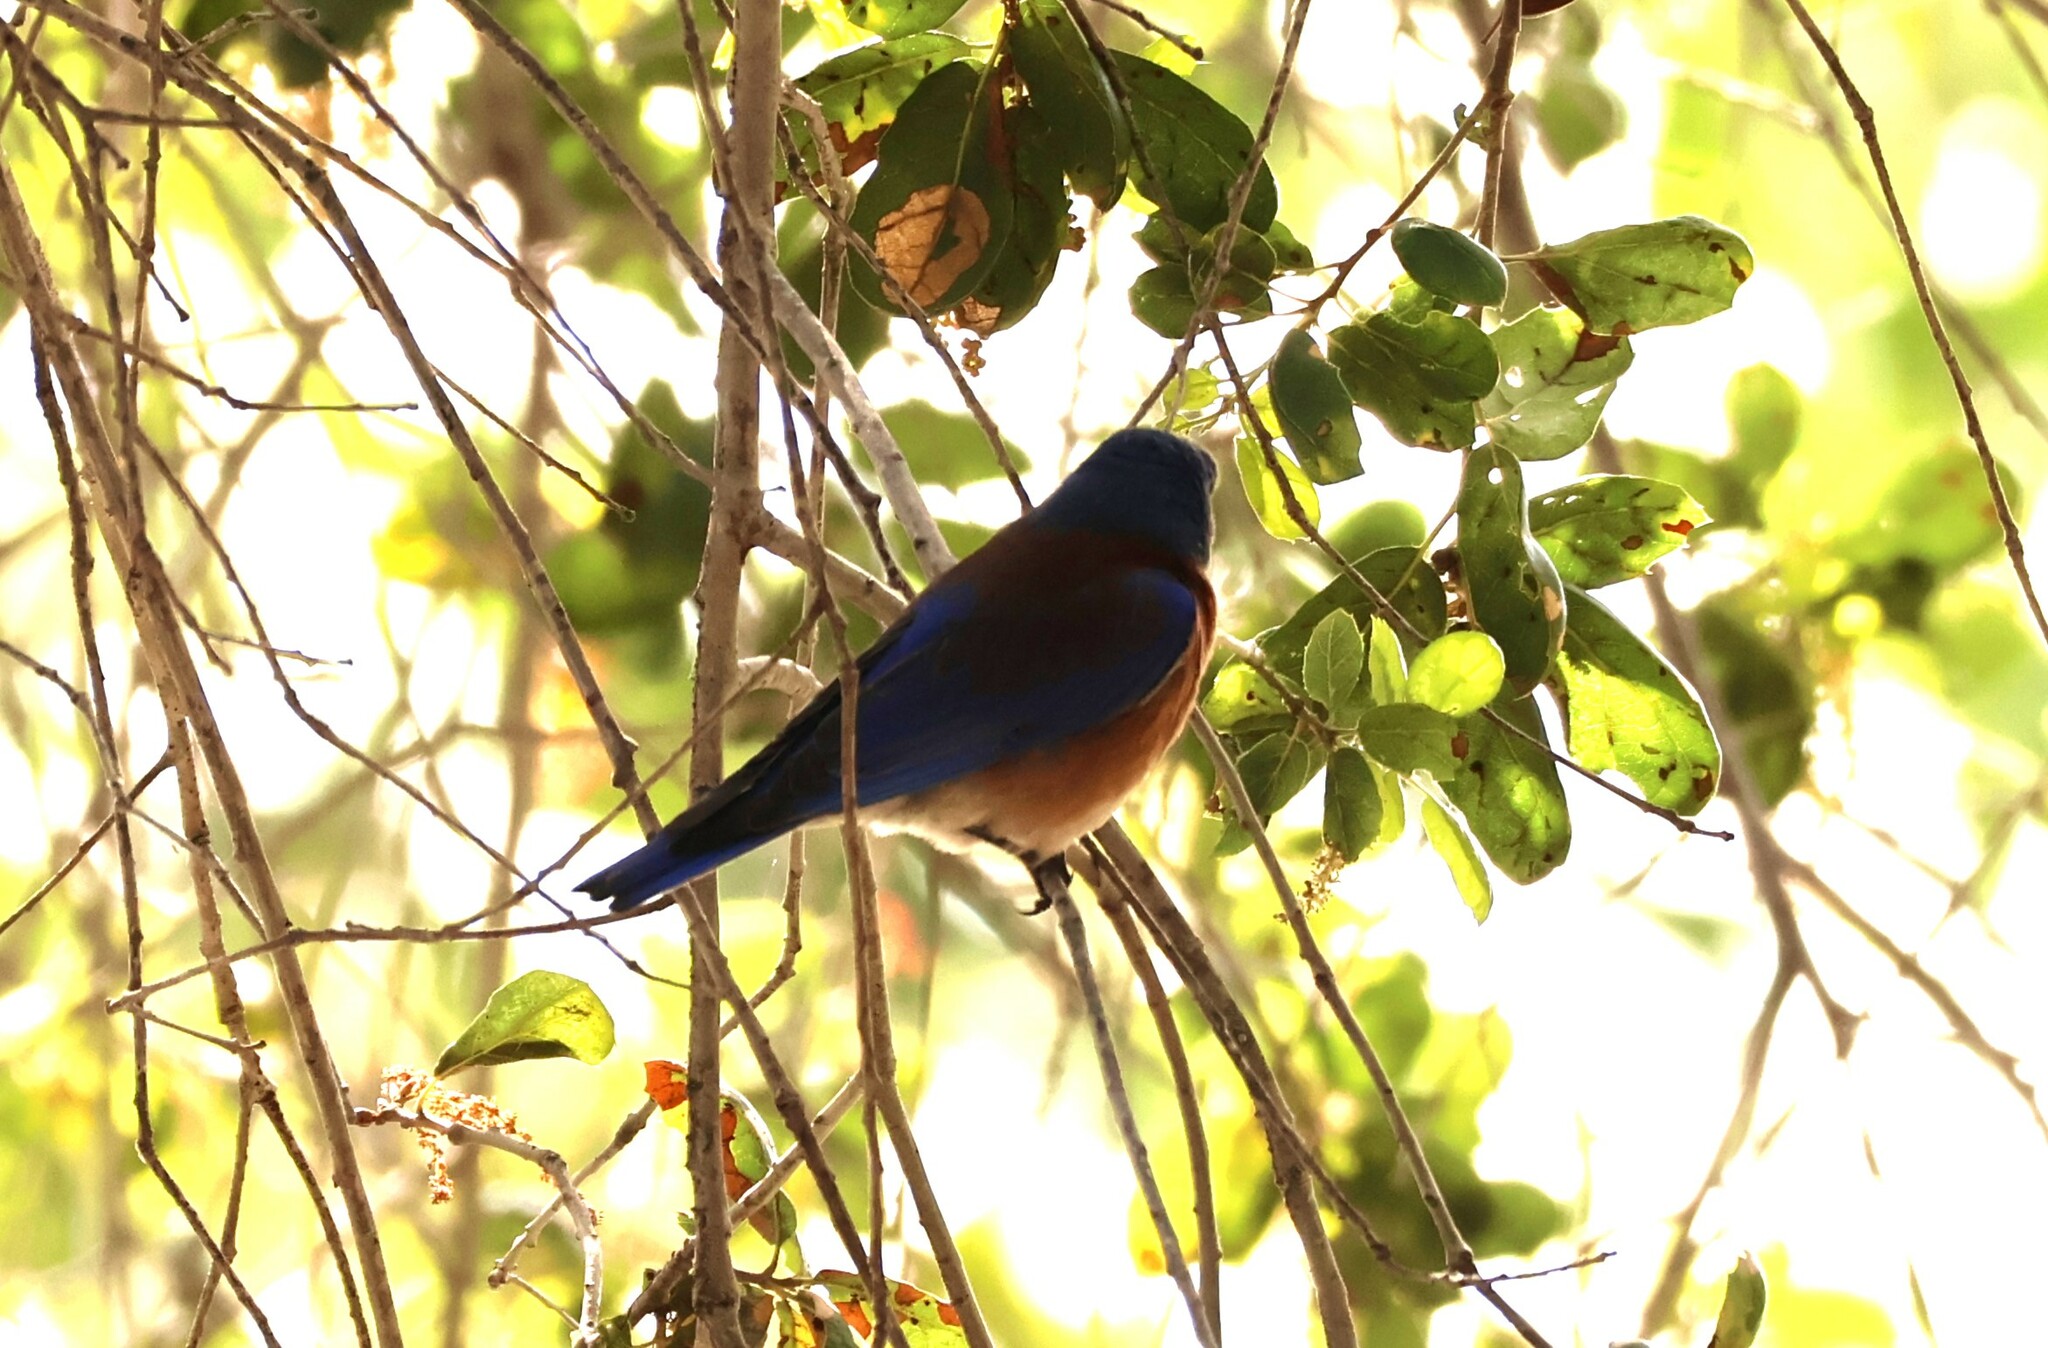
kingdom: Animalia
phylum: Chordata
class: Aves
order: Passeriformes
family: Turdidae
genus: Sialia
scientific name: Sialia mexicana
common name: Western bluebird
